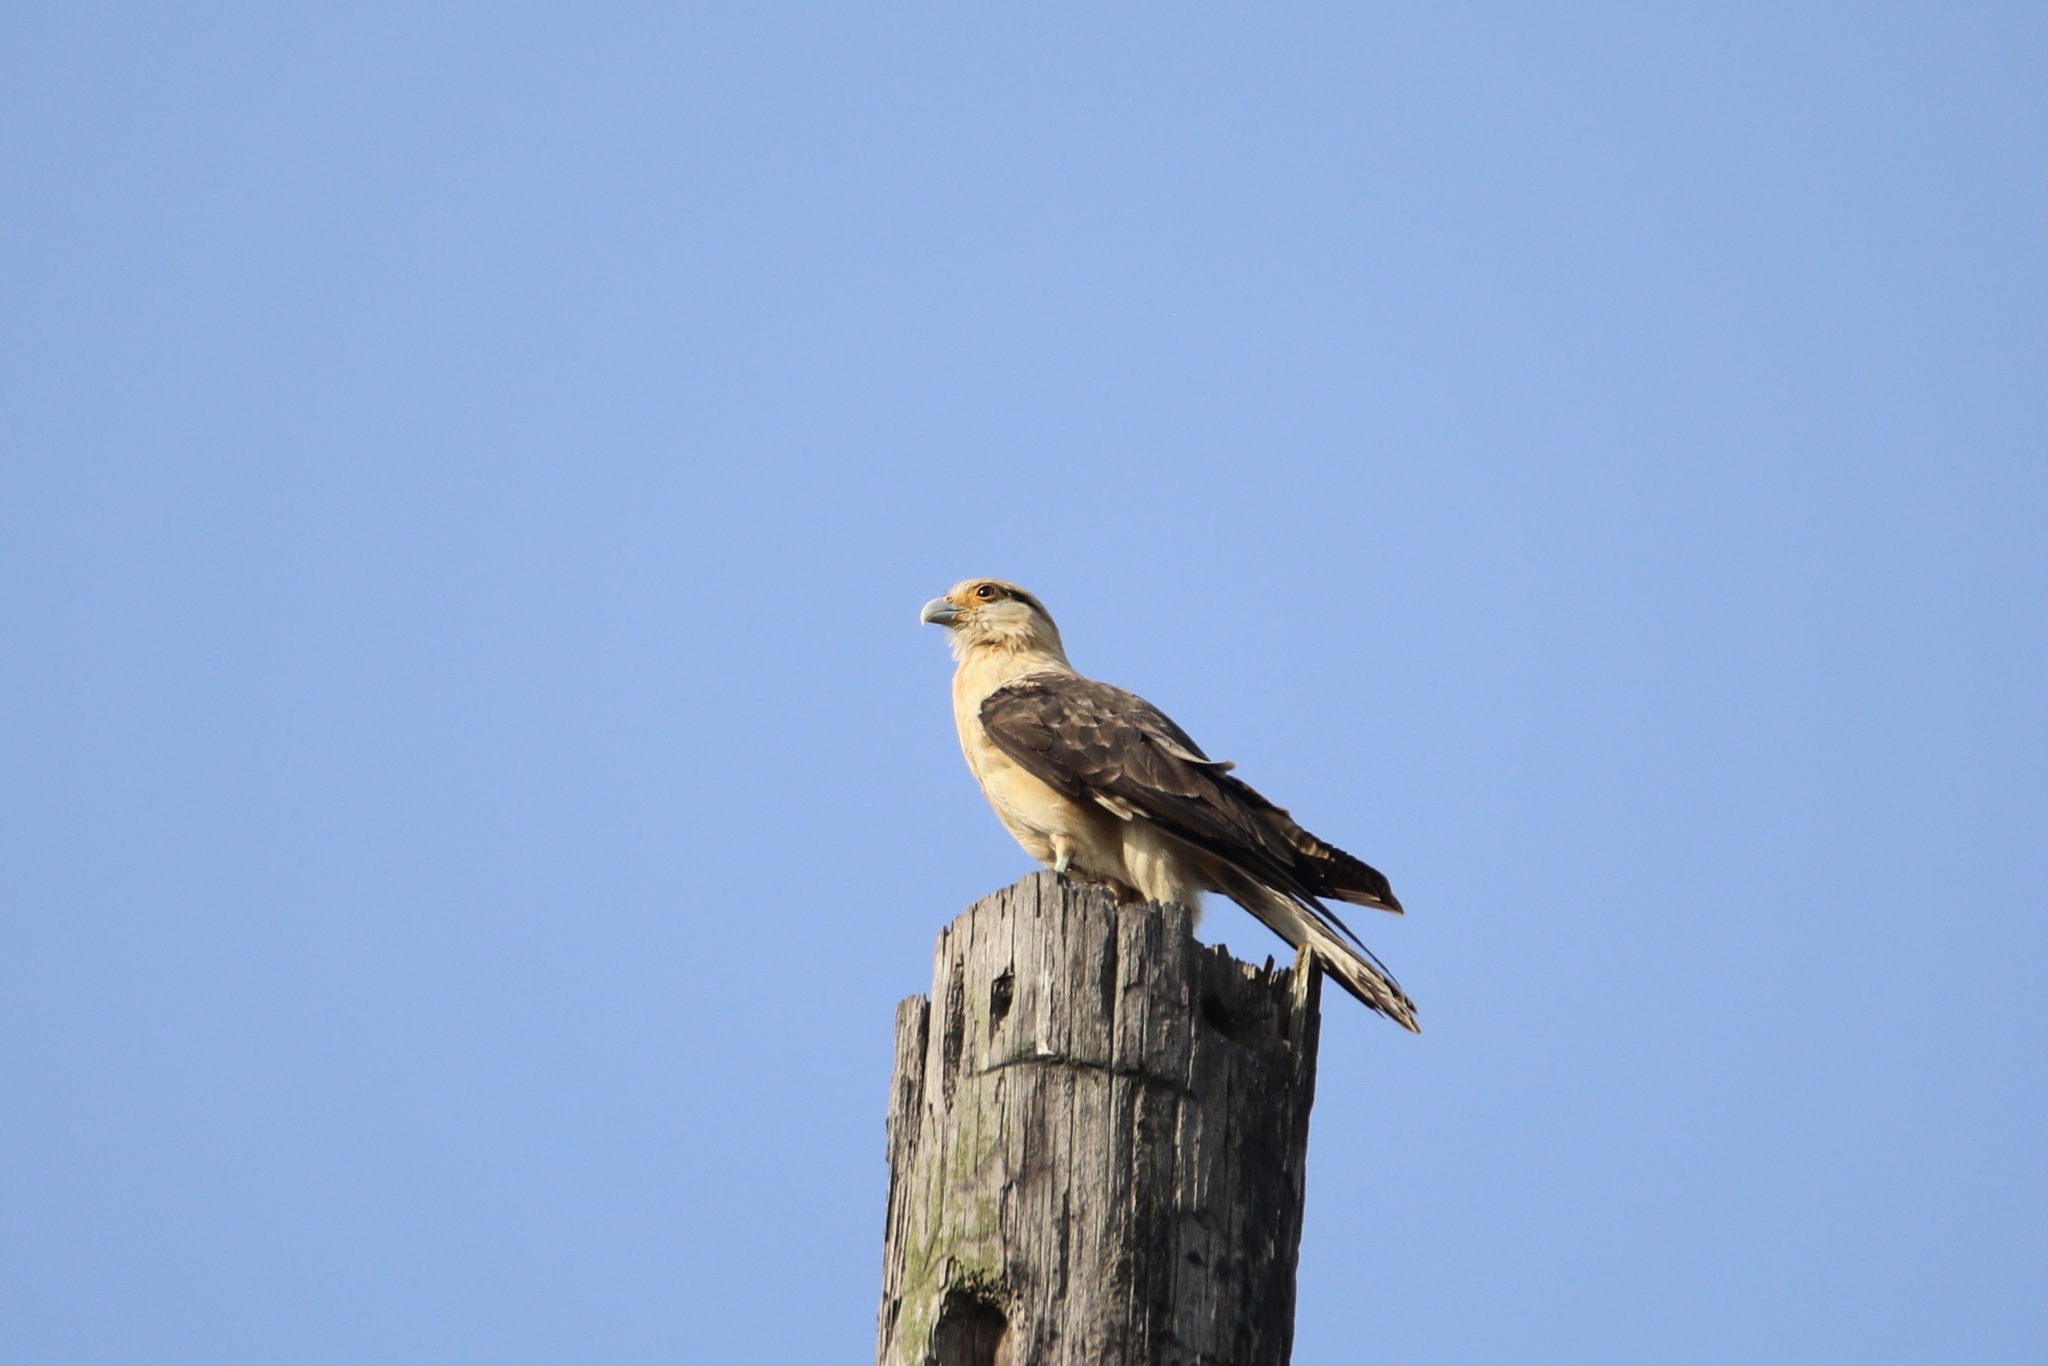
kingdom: Animalia
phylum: Chordata
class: Aves
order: Falconiformes
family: Falconidae
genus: Daptrius
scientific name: Daptrius
